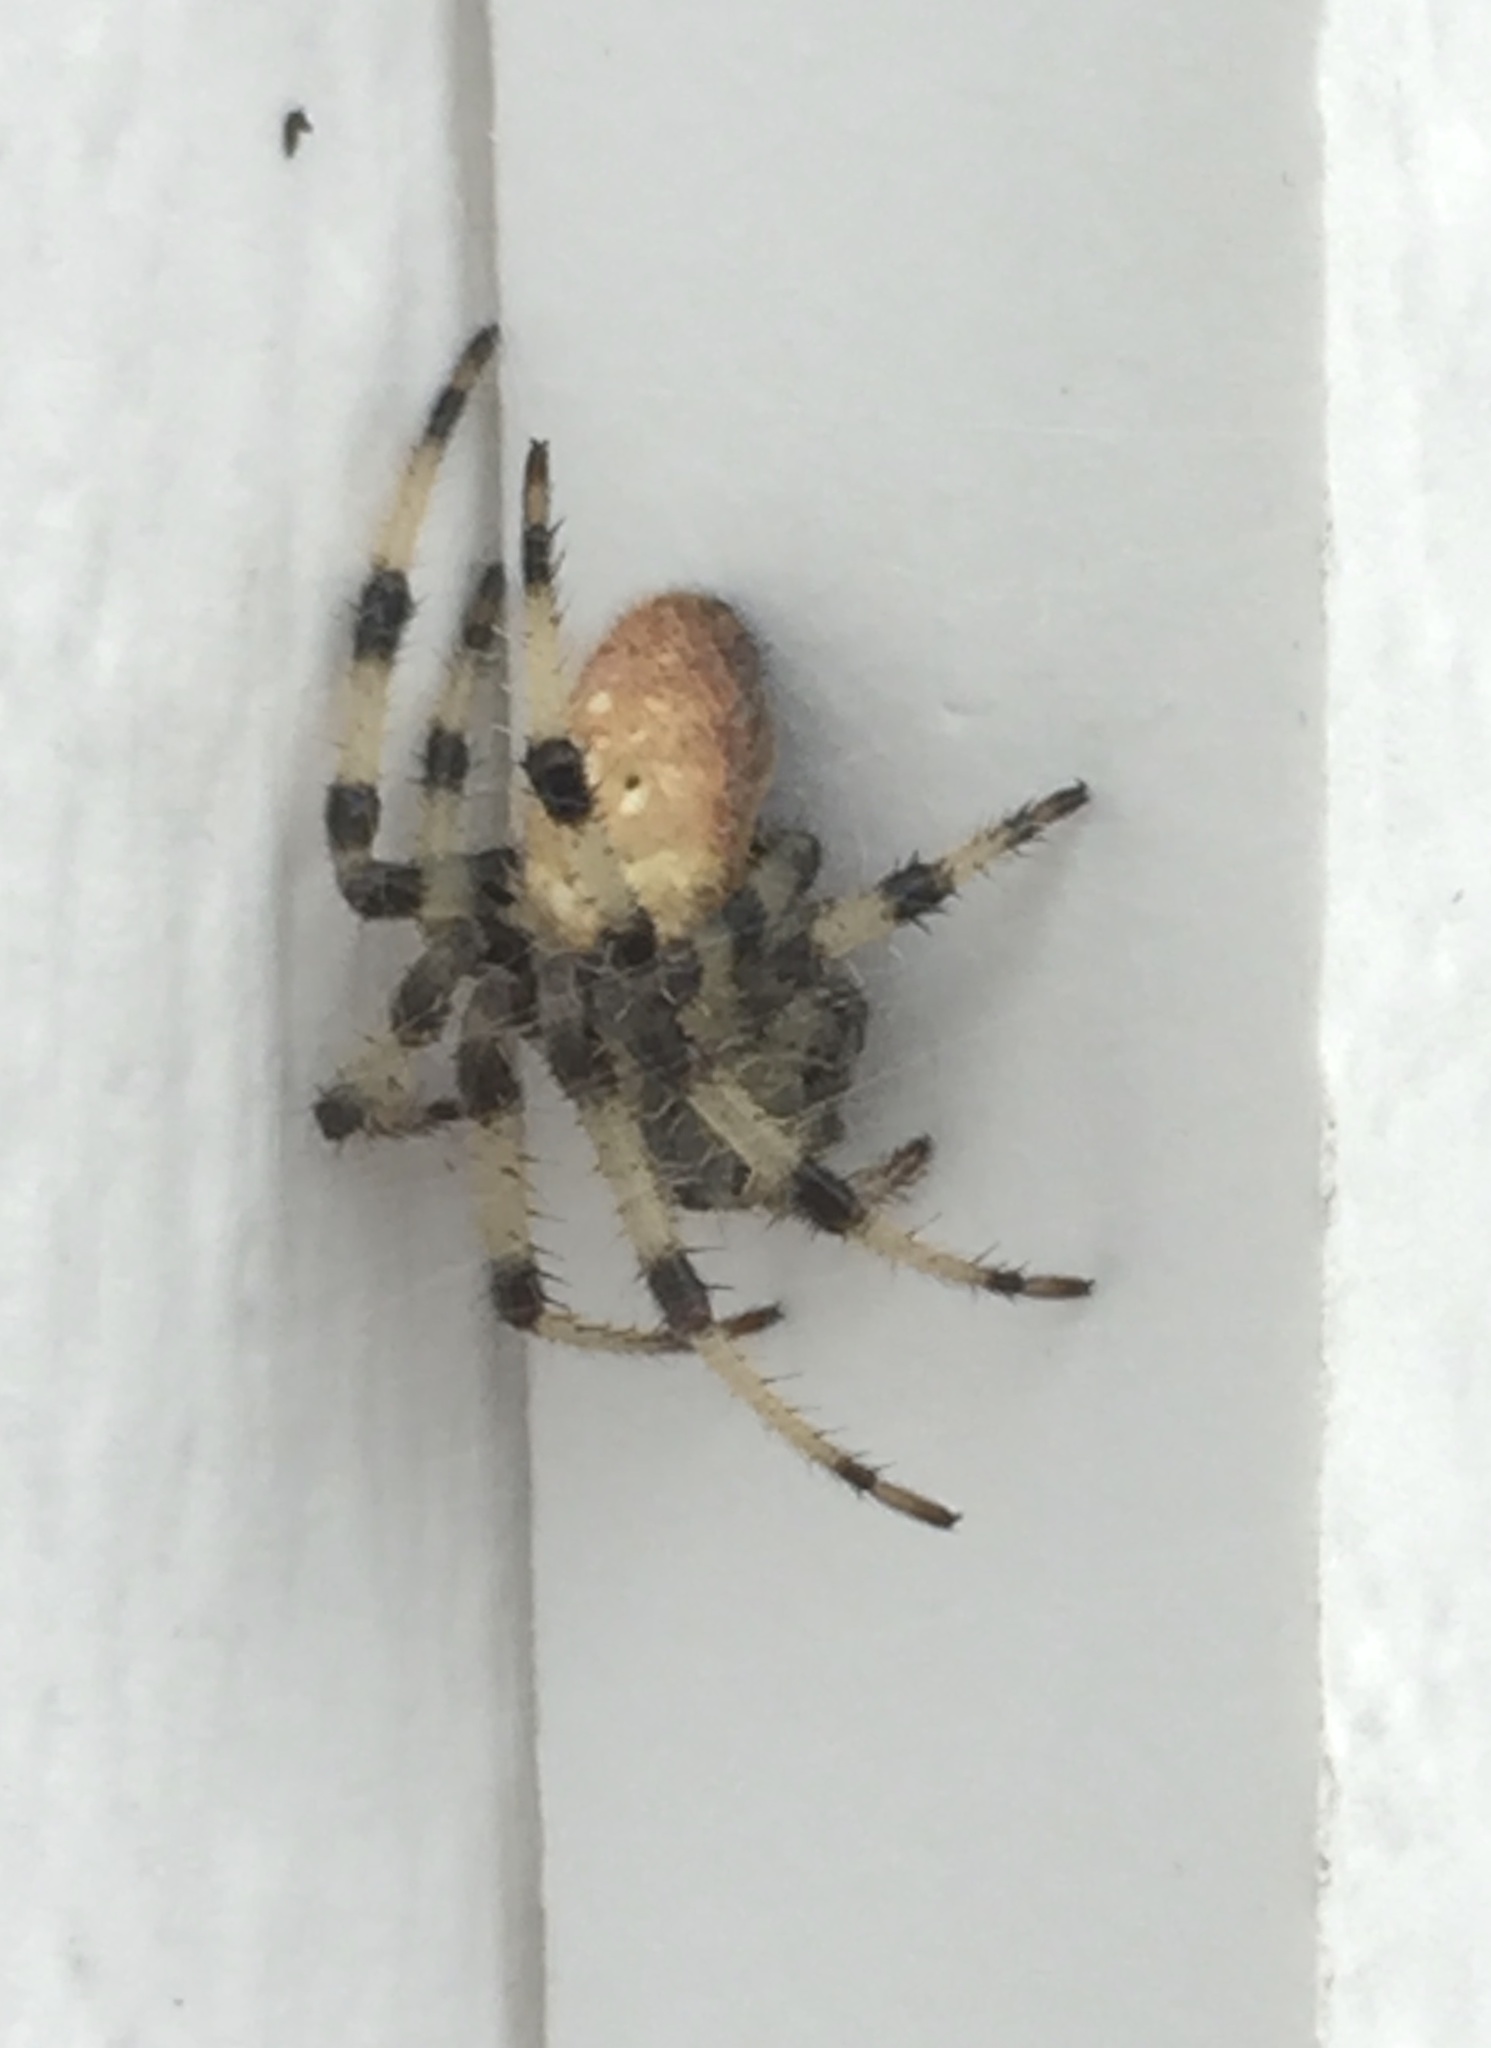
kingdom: Animalia
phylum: Arthropoda
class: Arachnida
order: Araneae
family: Araneidae
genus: Araneus
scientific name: Araneus trifolium
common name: Shamrock orbweaver
